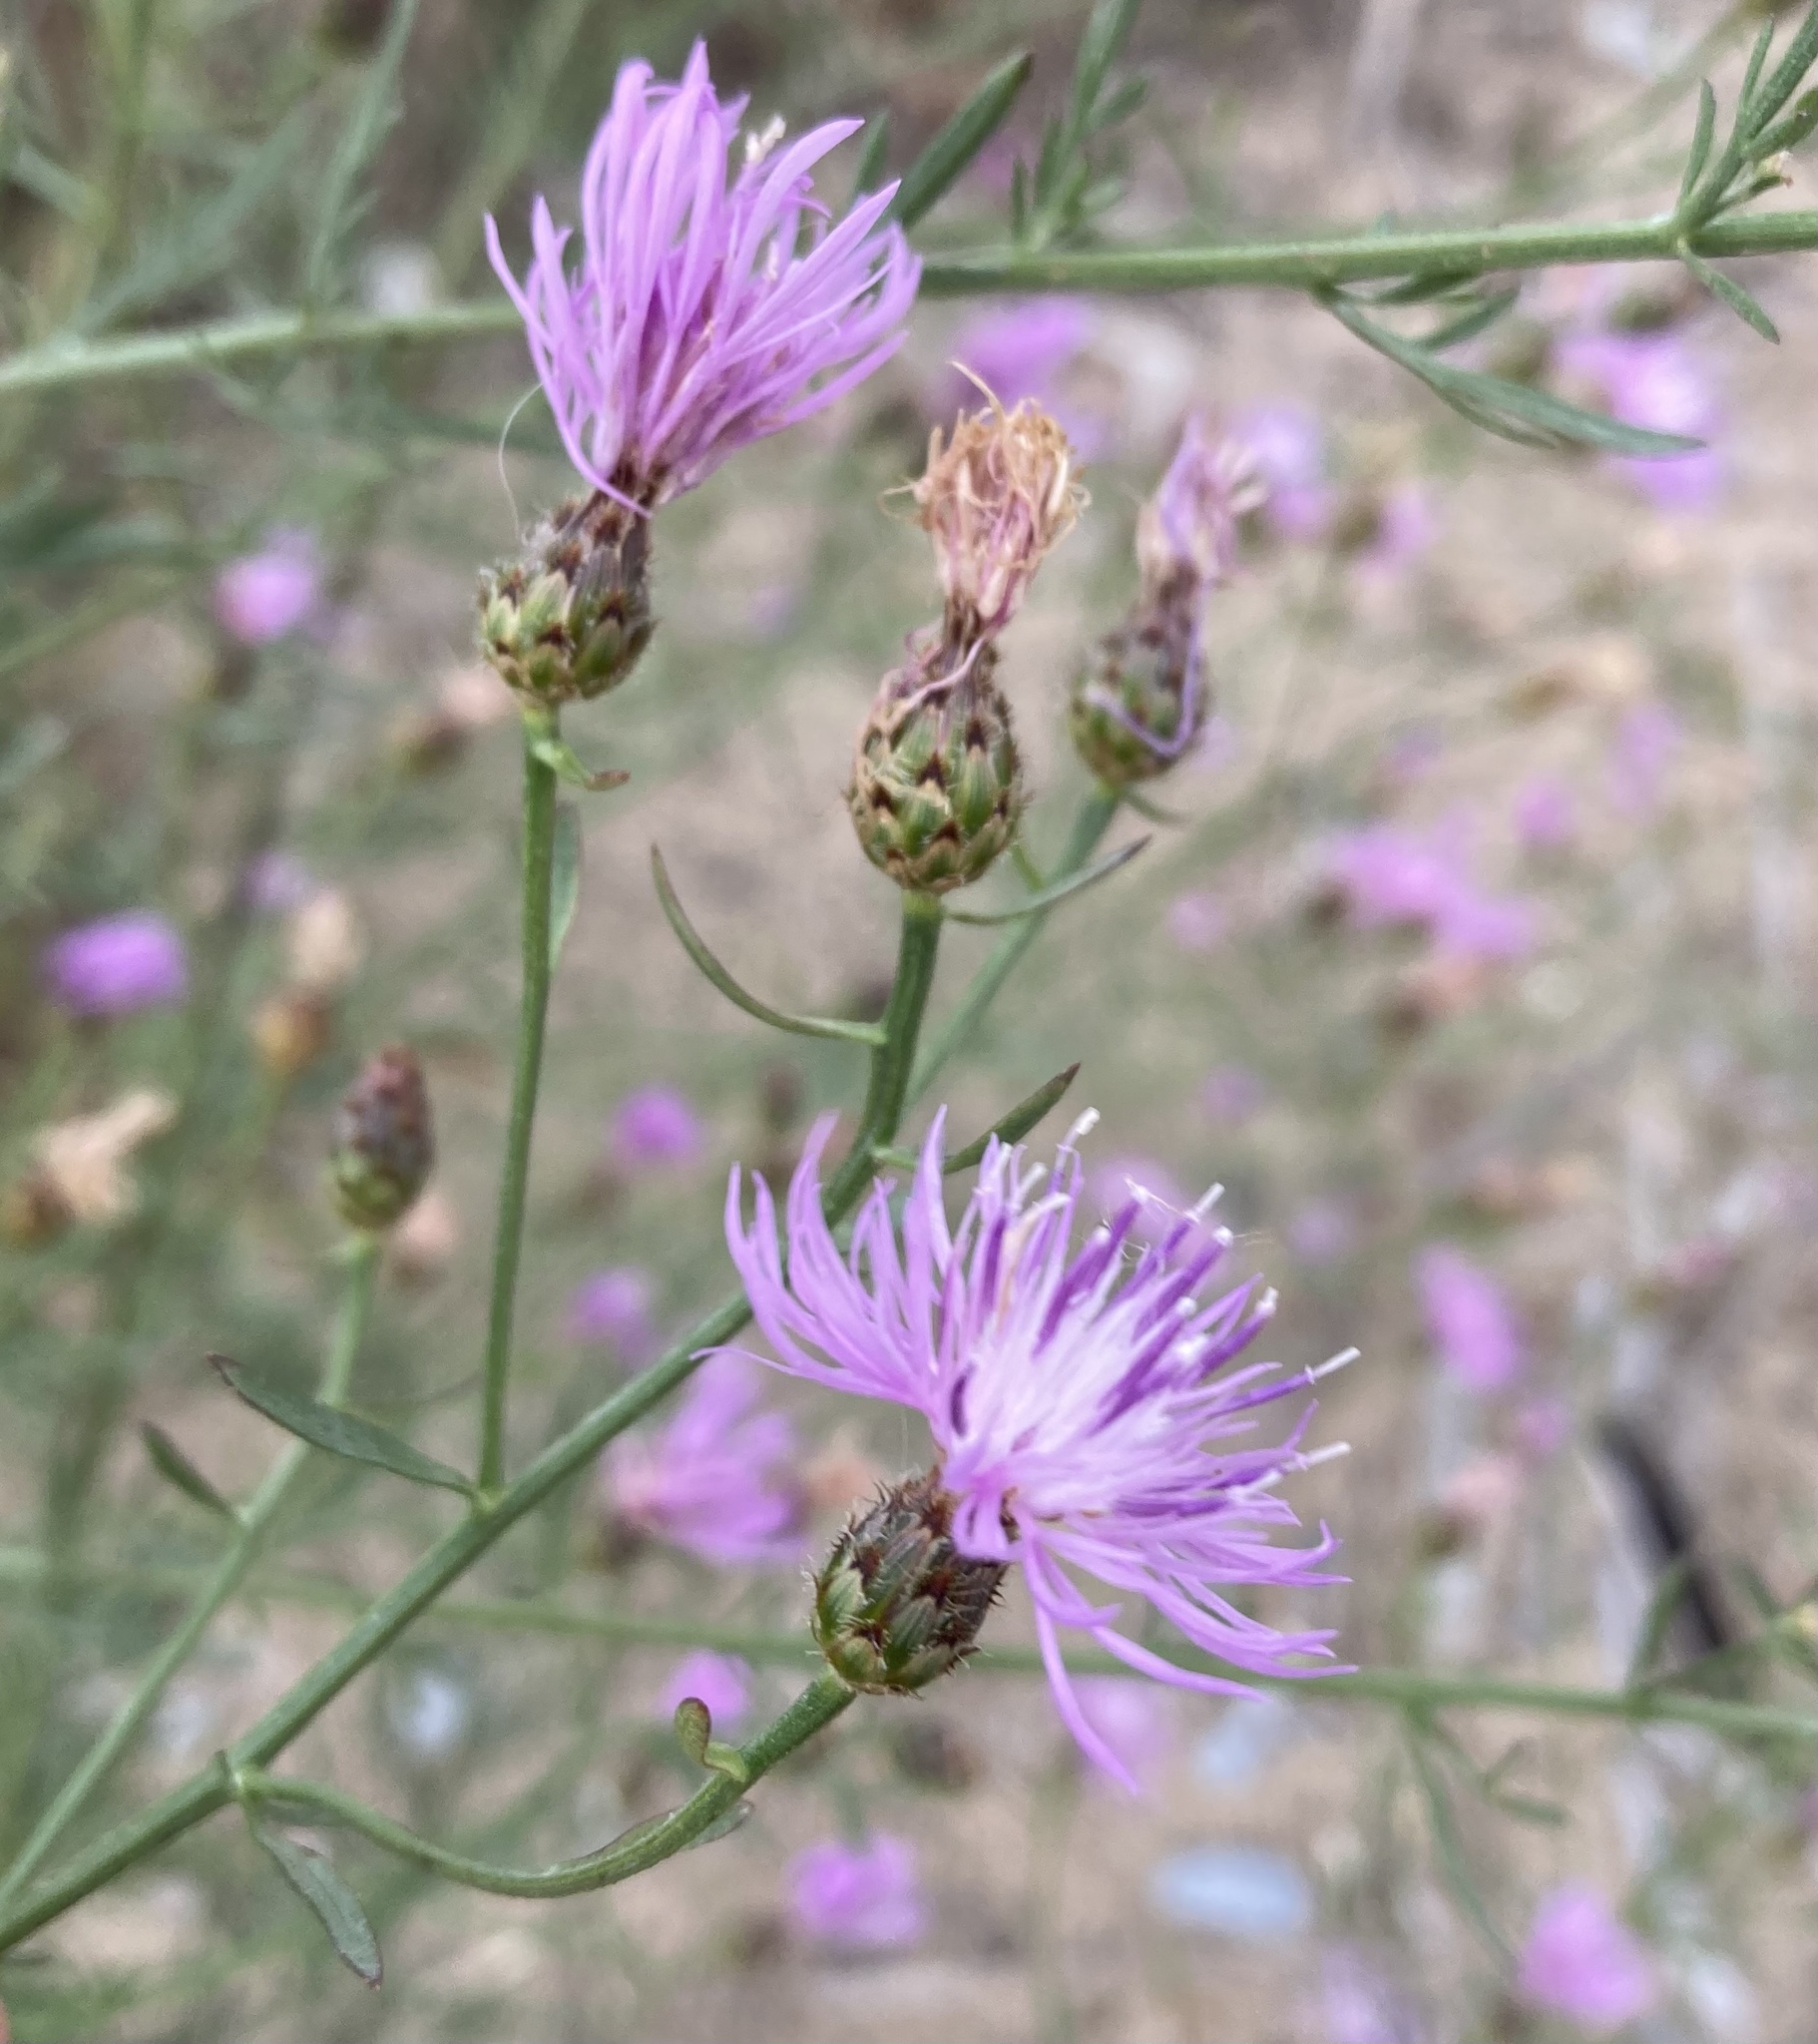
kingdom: Plantae
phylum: Tracheophyta
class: Magnoliopsida
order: Asterales
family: Asteraceae
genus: Centaurea
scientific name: Centaurea stoebe
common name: Spotted knapweed
